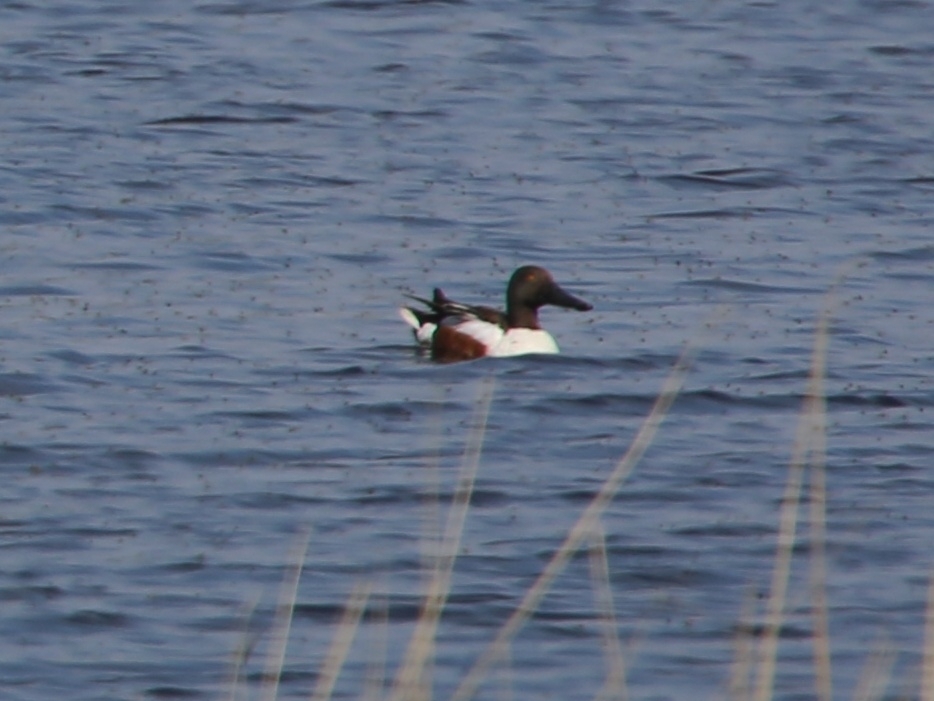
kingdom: Animalia
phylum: Chordata
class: Aves
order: Anseriformes
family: Anatidae
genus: Spatula
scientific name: Spatula clypeata
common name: Northern shoveler
